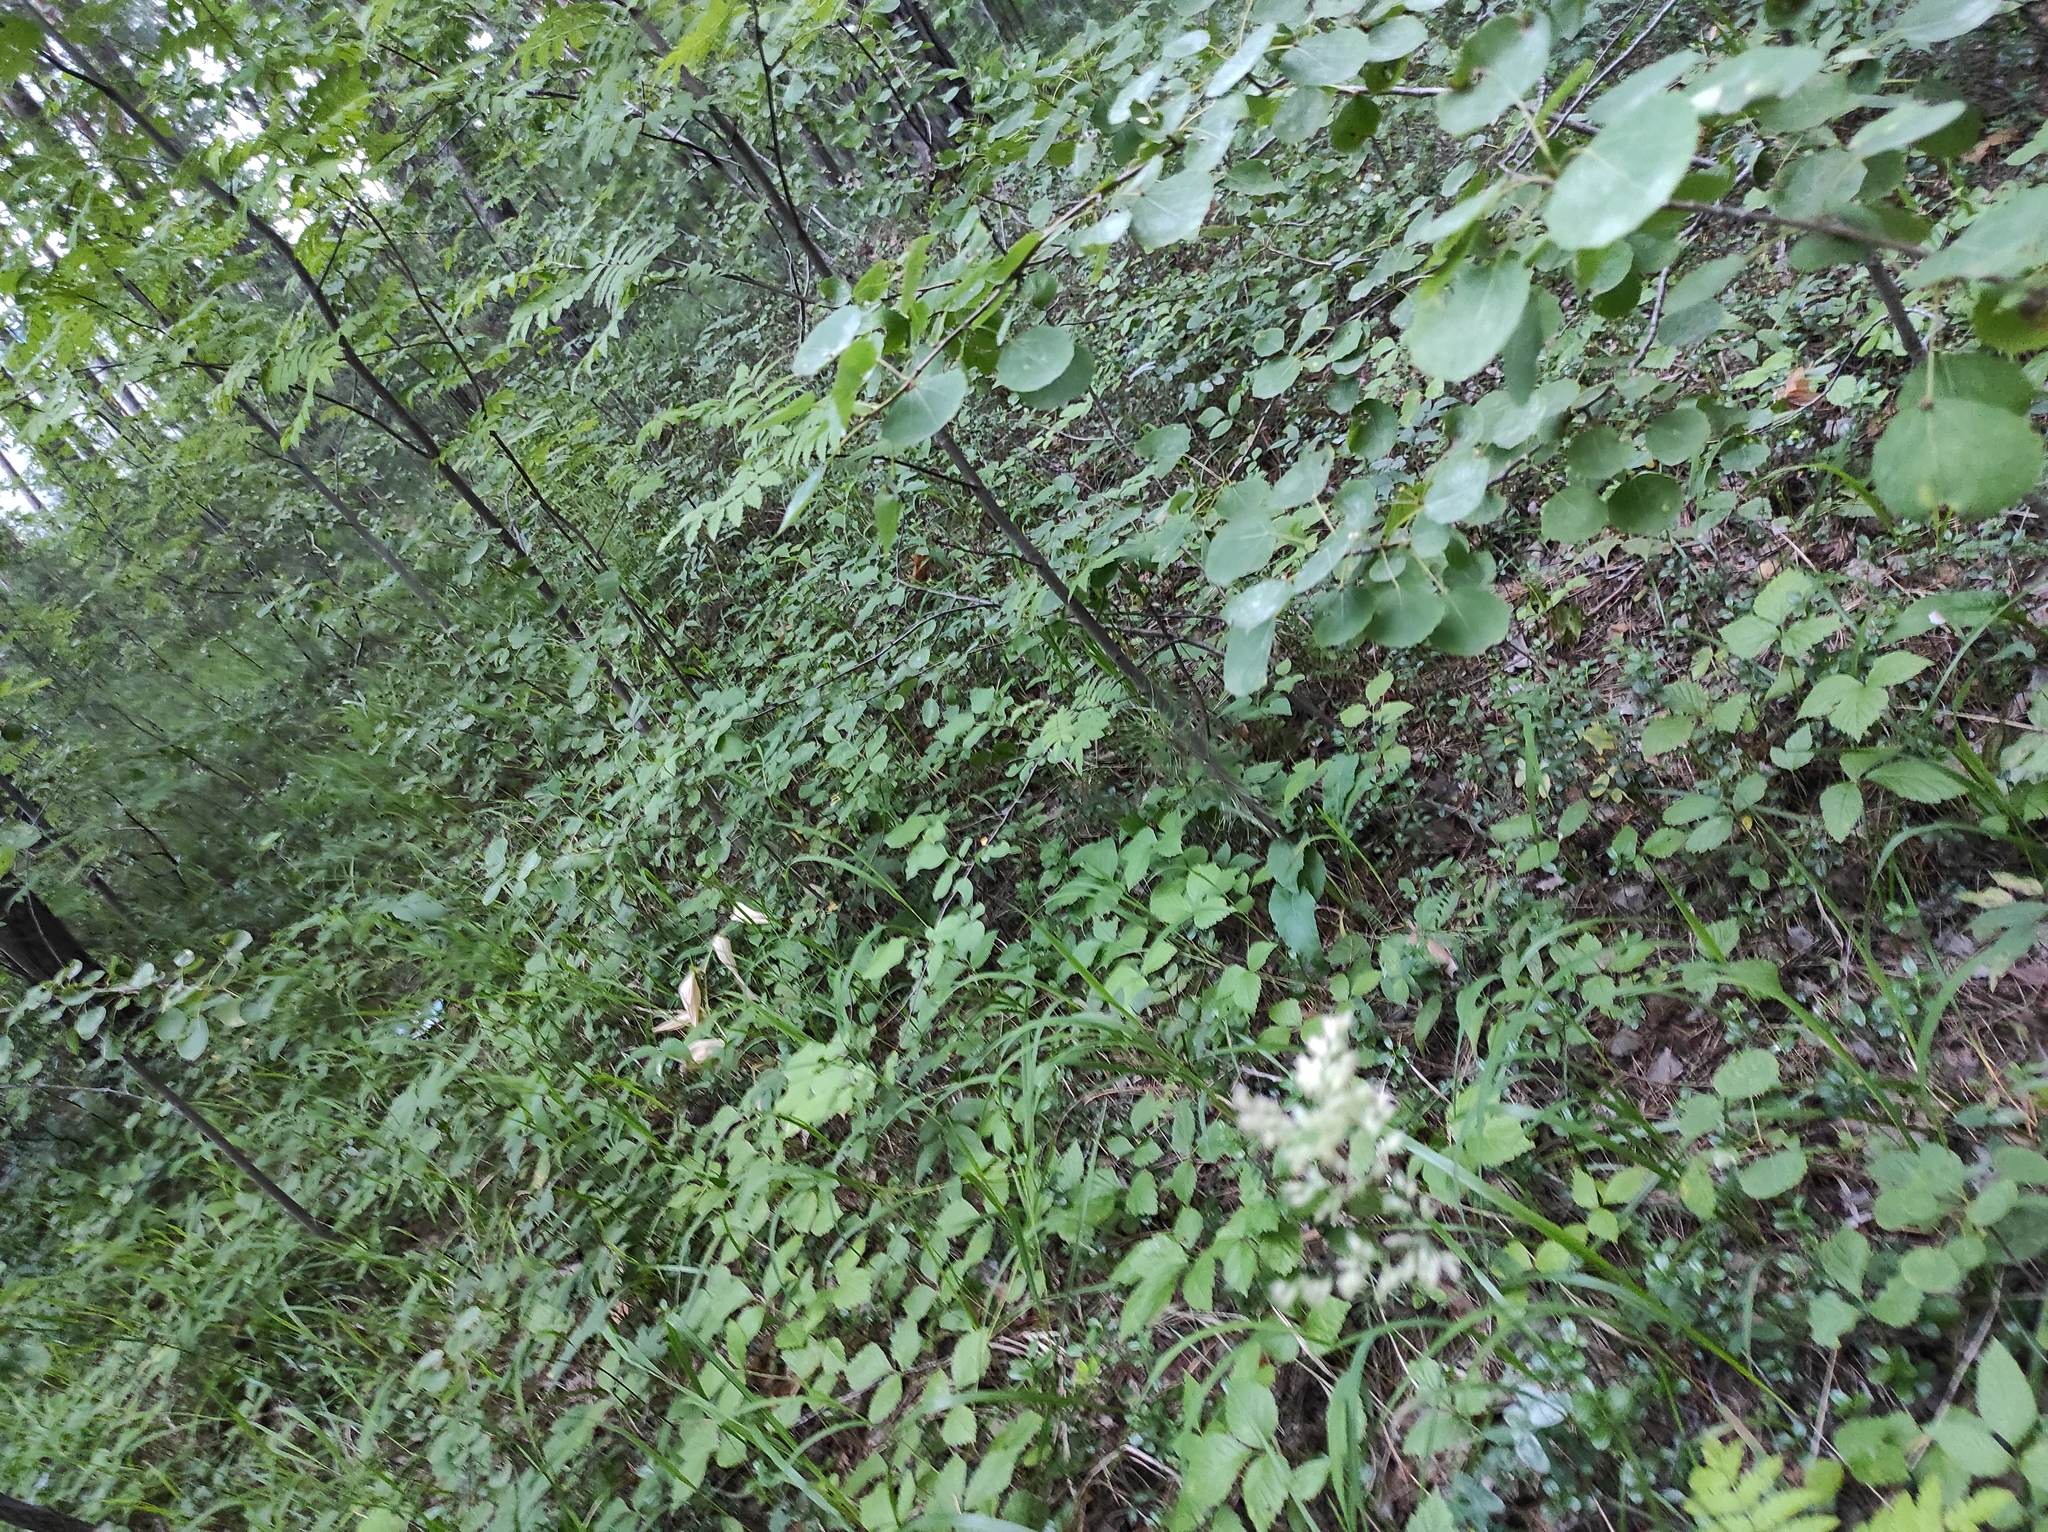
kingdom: Plantae
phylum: Tracheophyta
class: Magnoliopsida
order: Malpighiales
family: Salicaceae
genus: Populus
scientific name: Populus tremula
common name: European aspen
